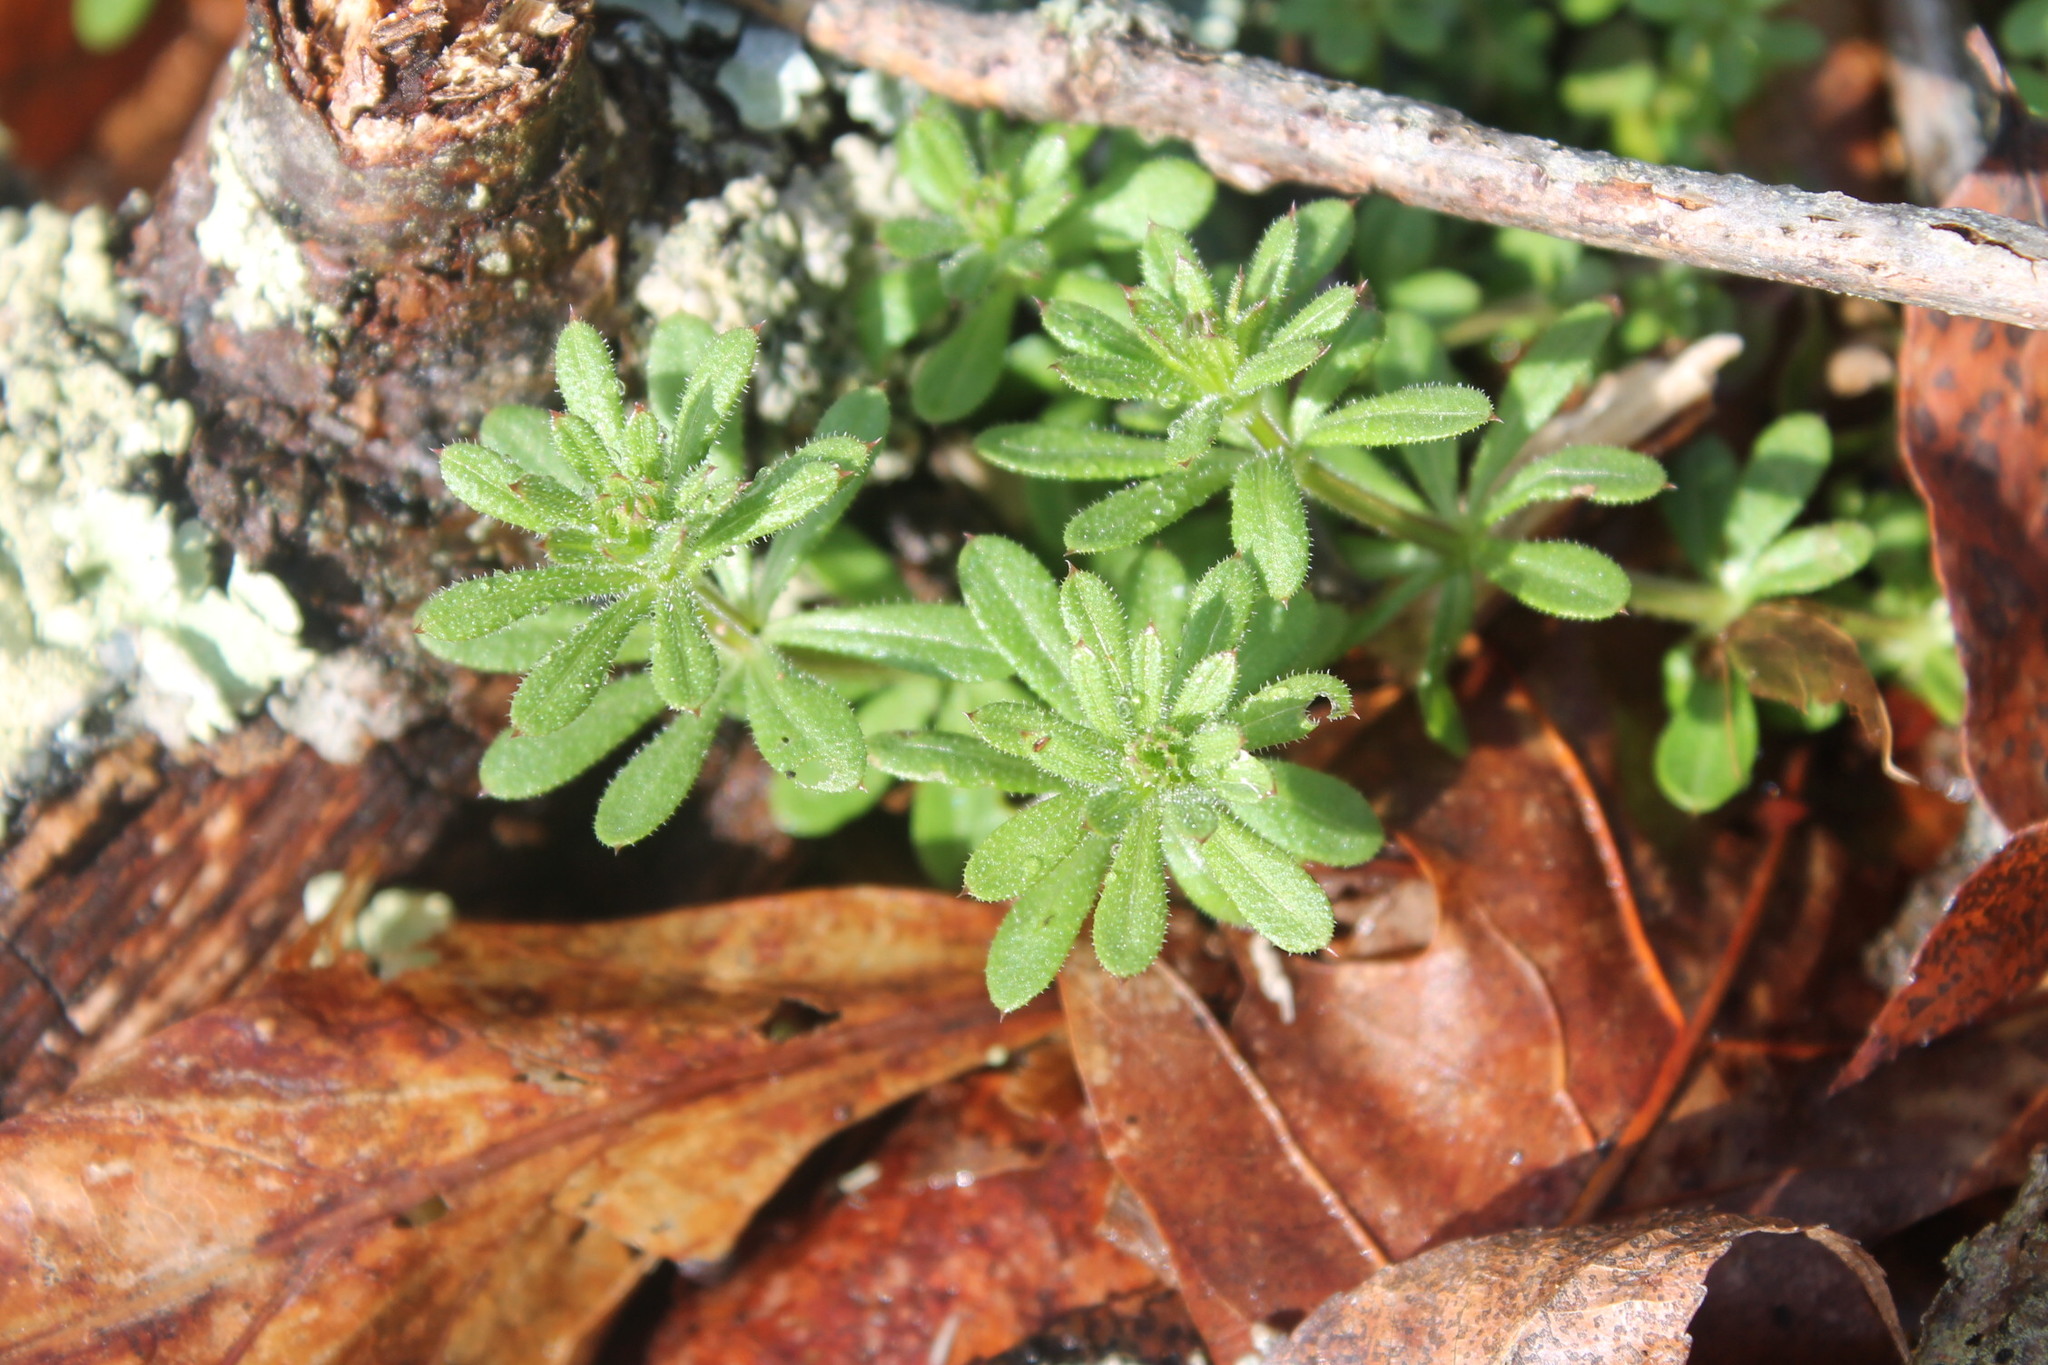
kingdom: Plantae
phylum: Tracheophyta
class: Magnoliopsida
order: Gentianales
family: Rubiaceae
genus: Galium
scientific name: Galium aparine
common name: Cleavers
